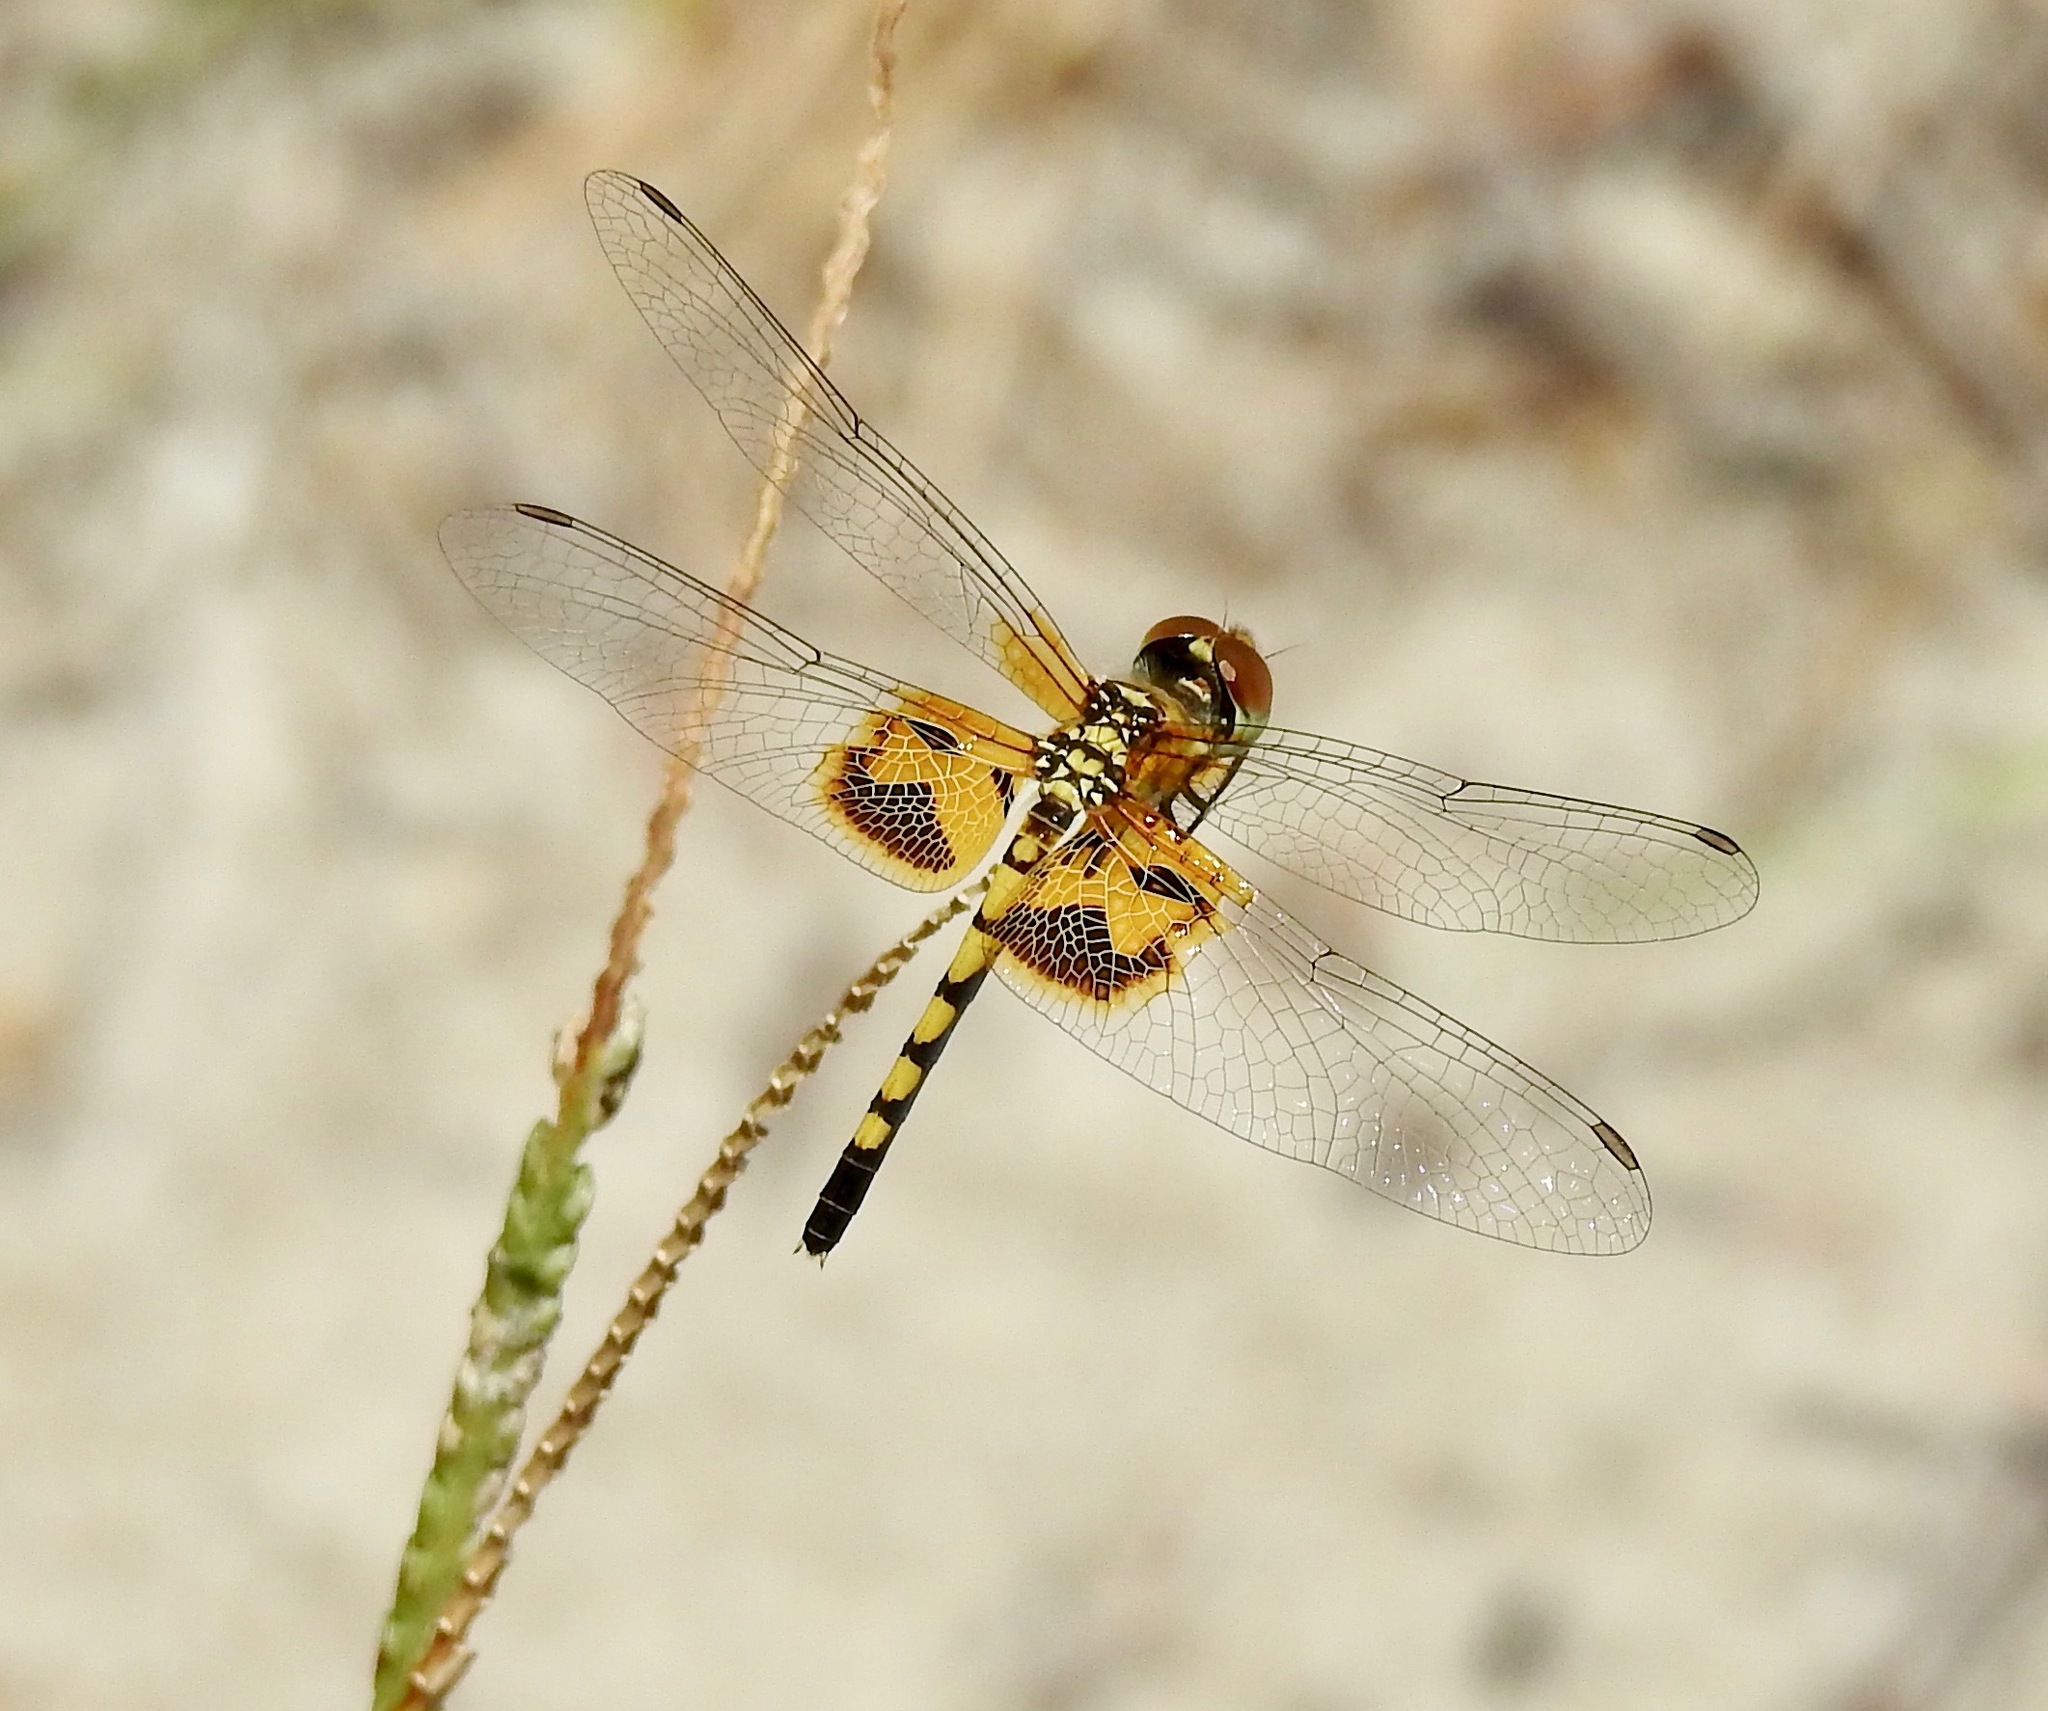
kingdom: Animalia
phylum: Arthropoda
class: Insecta
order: Odonata
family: Libellulidae
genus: Celithemis
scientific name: Celithemis amanda
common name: Amanda's pennant
